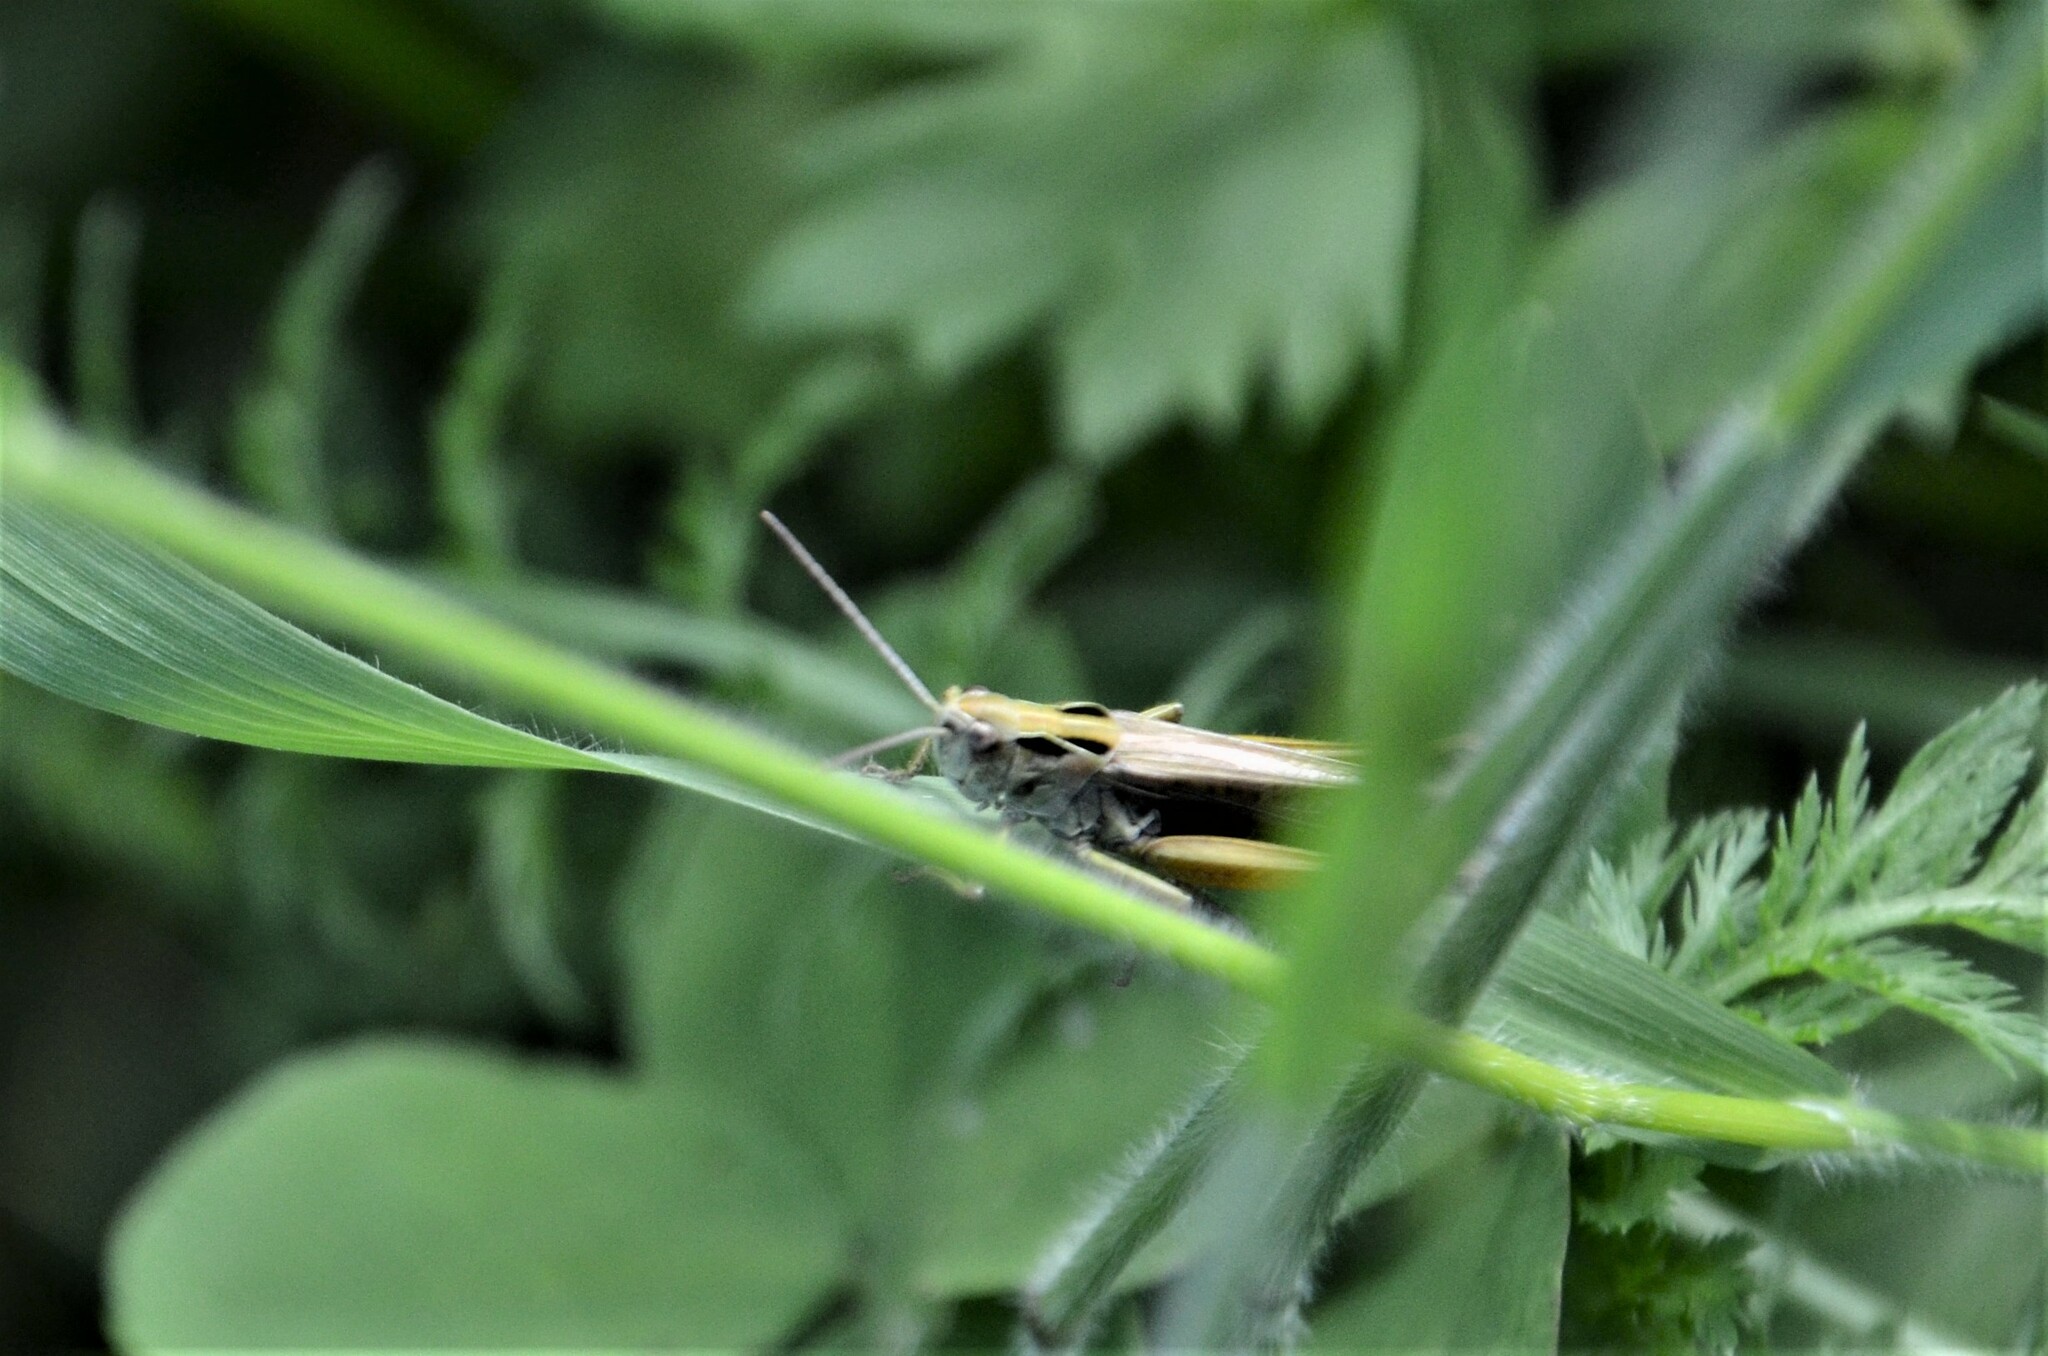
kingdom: Animalia
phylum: Arthropoda
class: Insecta
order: Orthoptera
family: Acrididae
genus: Omocestus
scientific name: Omocestus viridulus
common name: Common green grasshopper
